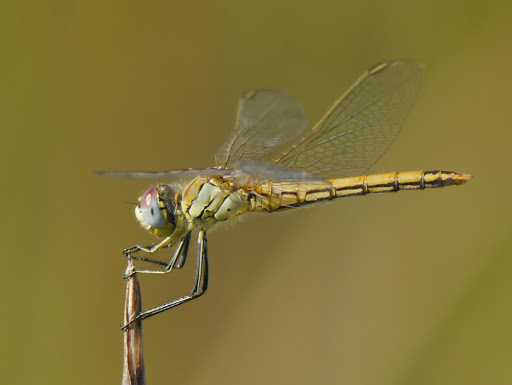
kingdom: Animalia
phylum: Arthropoda
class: Insecta
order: Odonata
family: Libellulidae
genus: Sympetrum
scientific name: Sympetrum fonscolombii
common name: Red-veined darter
